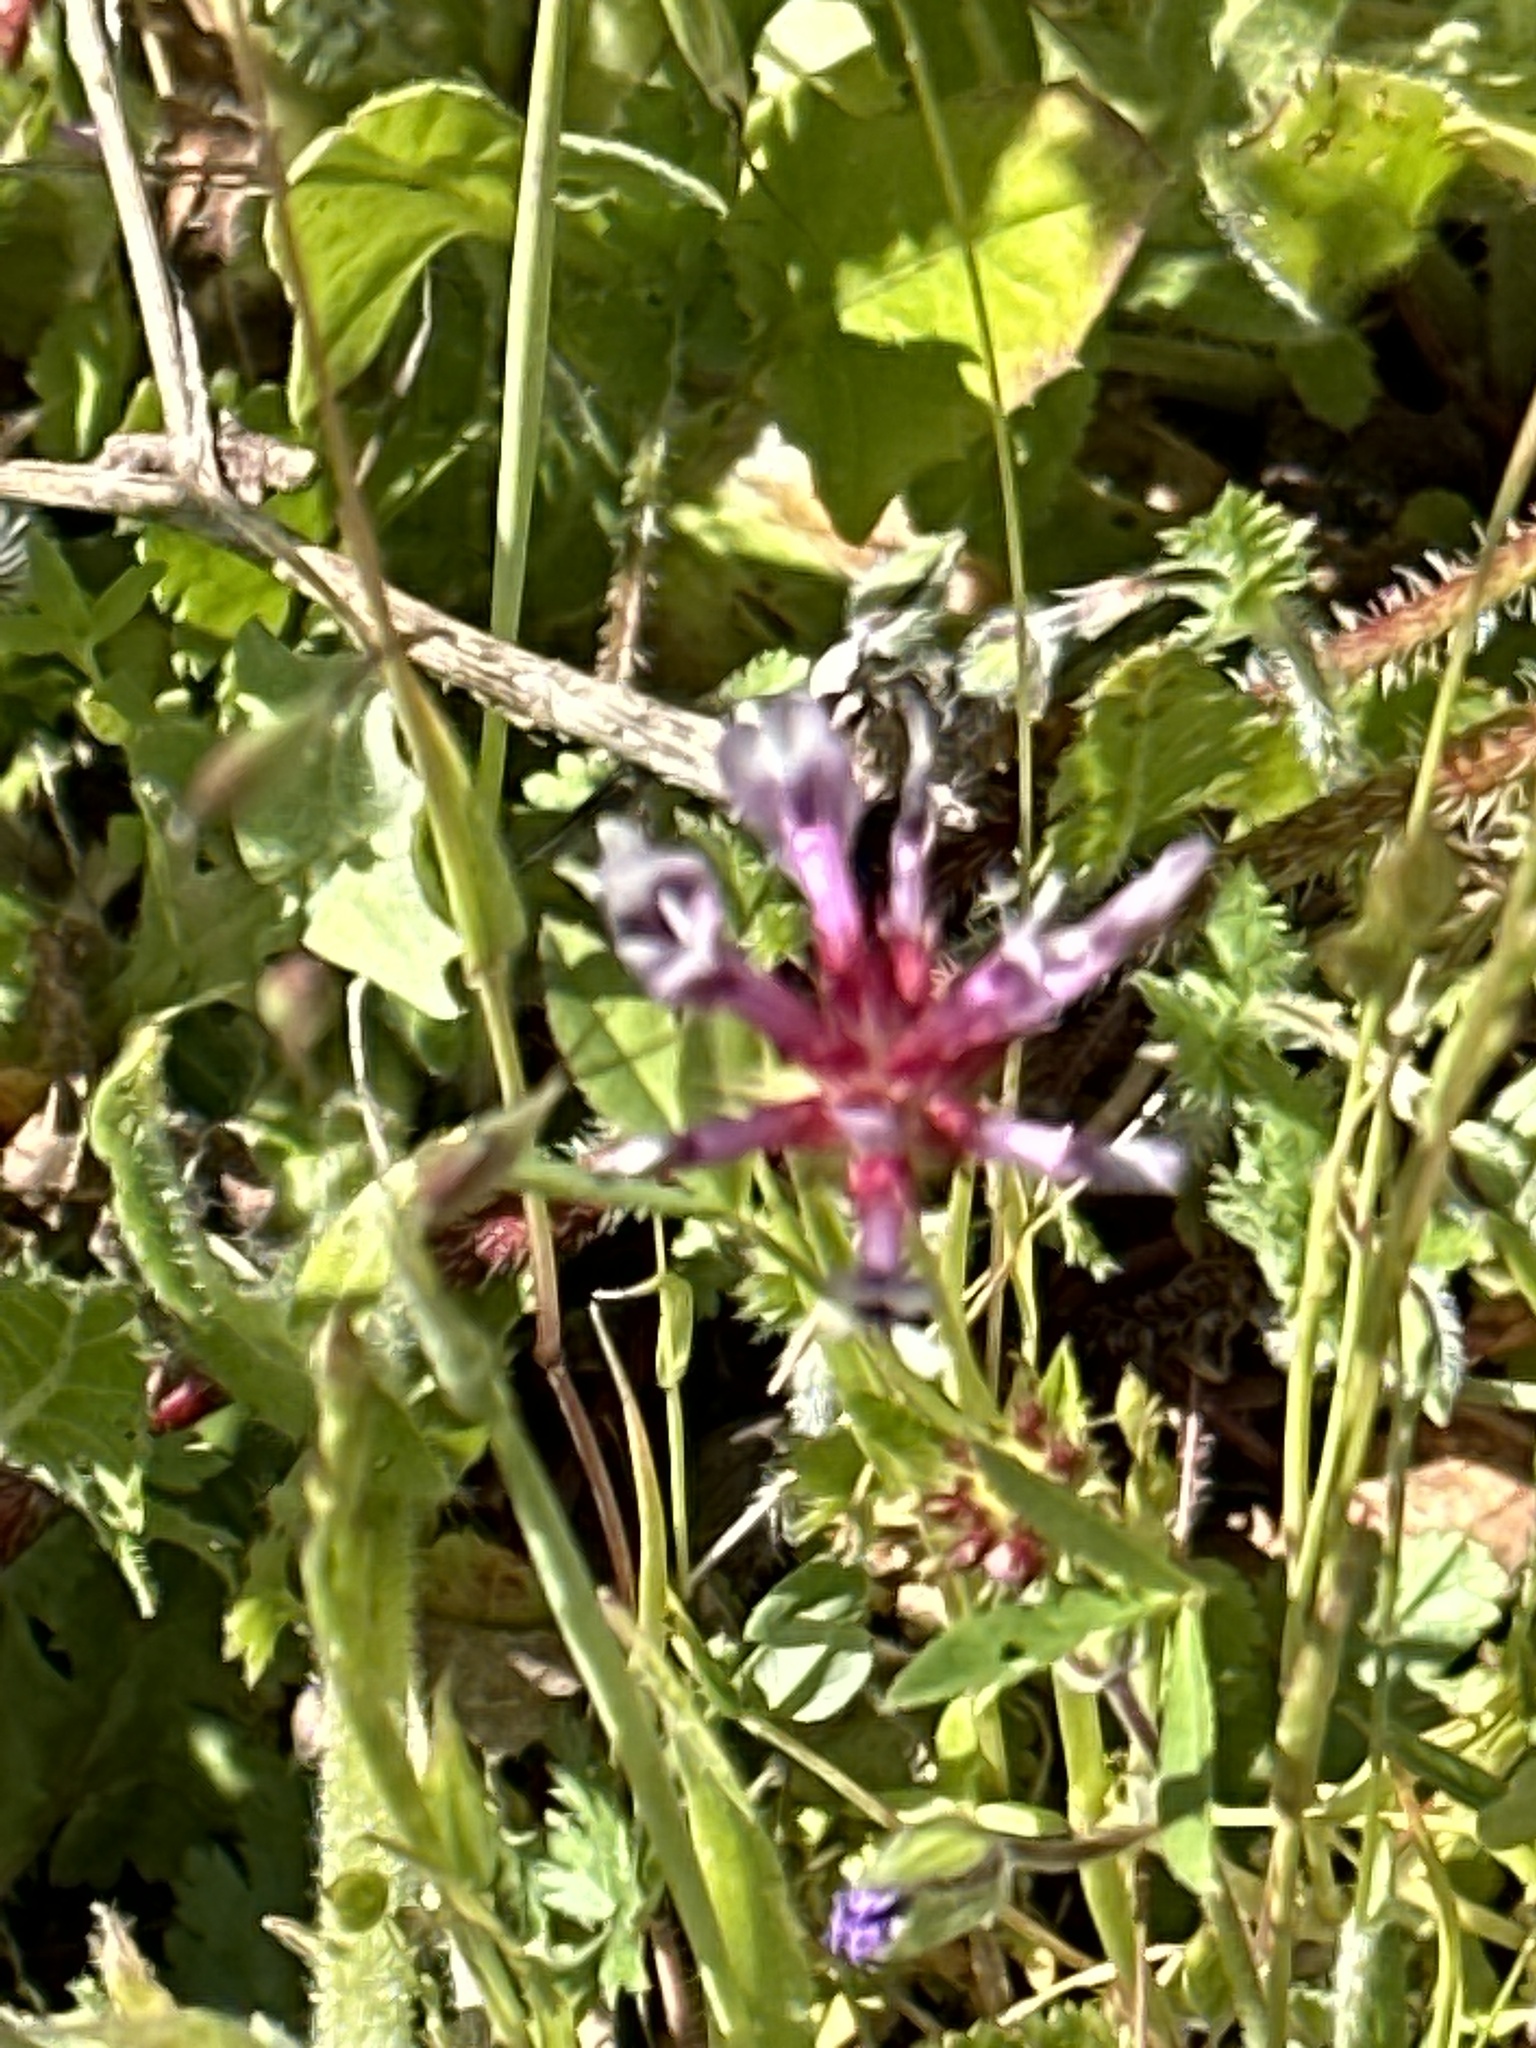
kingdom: Plantae
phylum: Tracheophyta
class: Magnoliopsida
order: Fabales
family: Fabaceae
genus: Trifolium
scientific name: Trifolium willdenovii
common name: Tomcat clover
